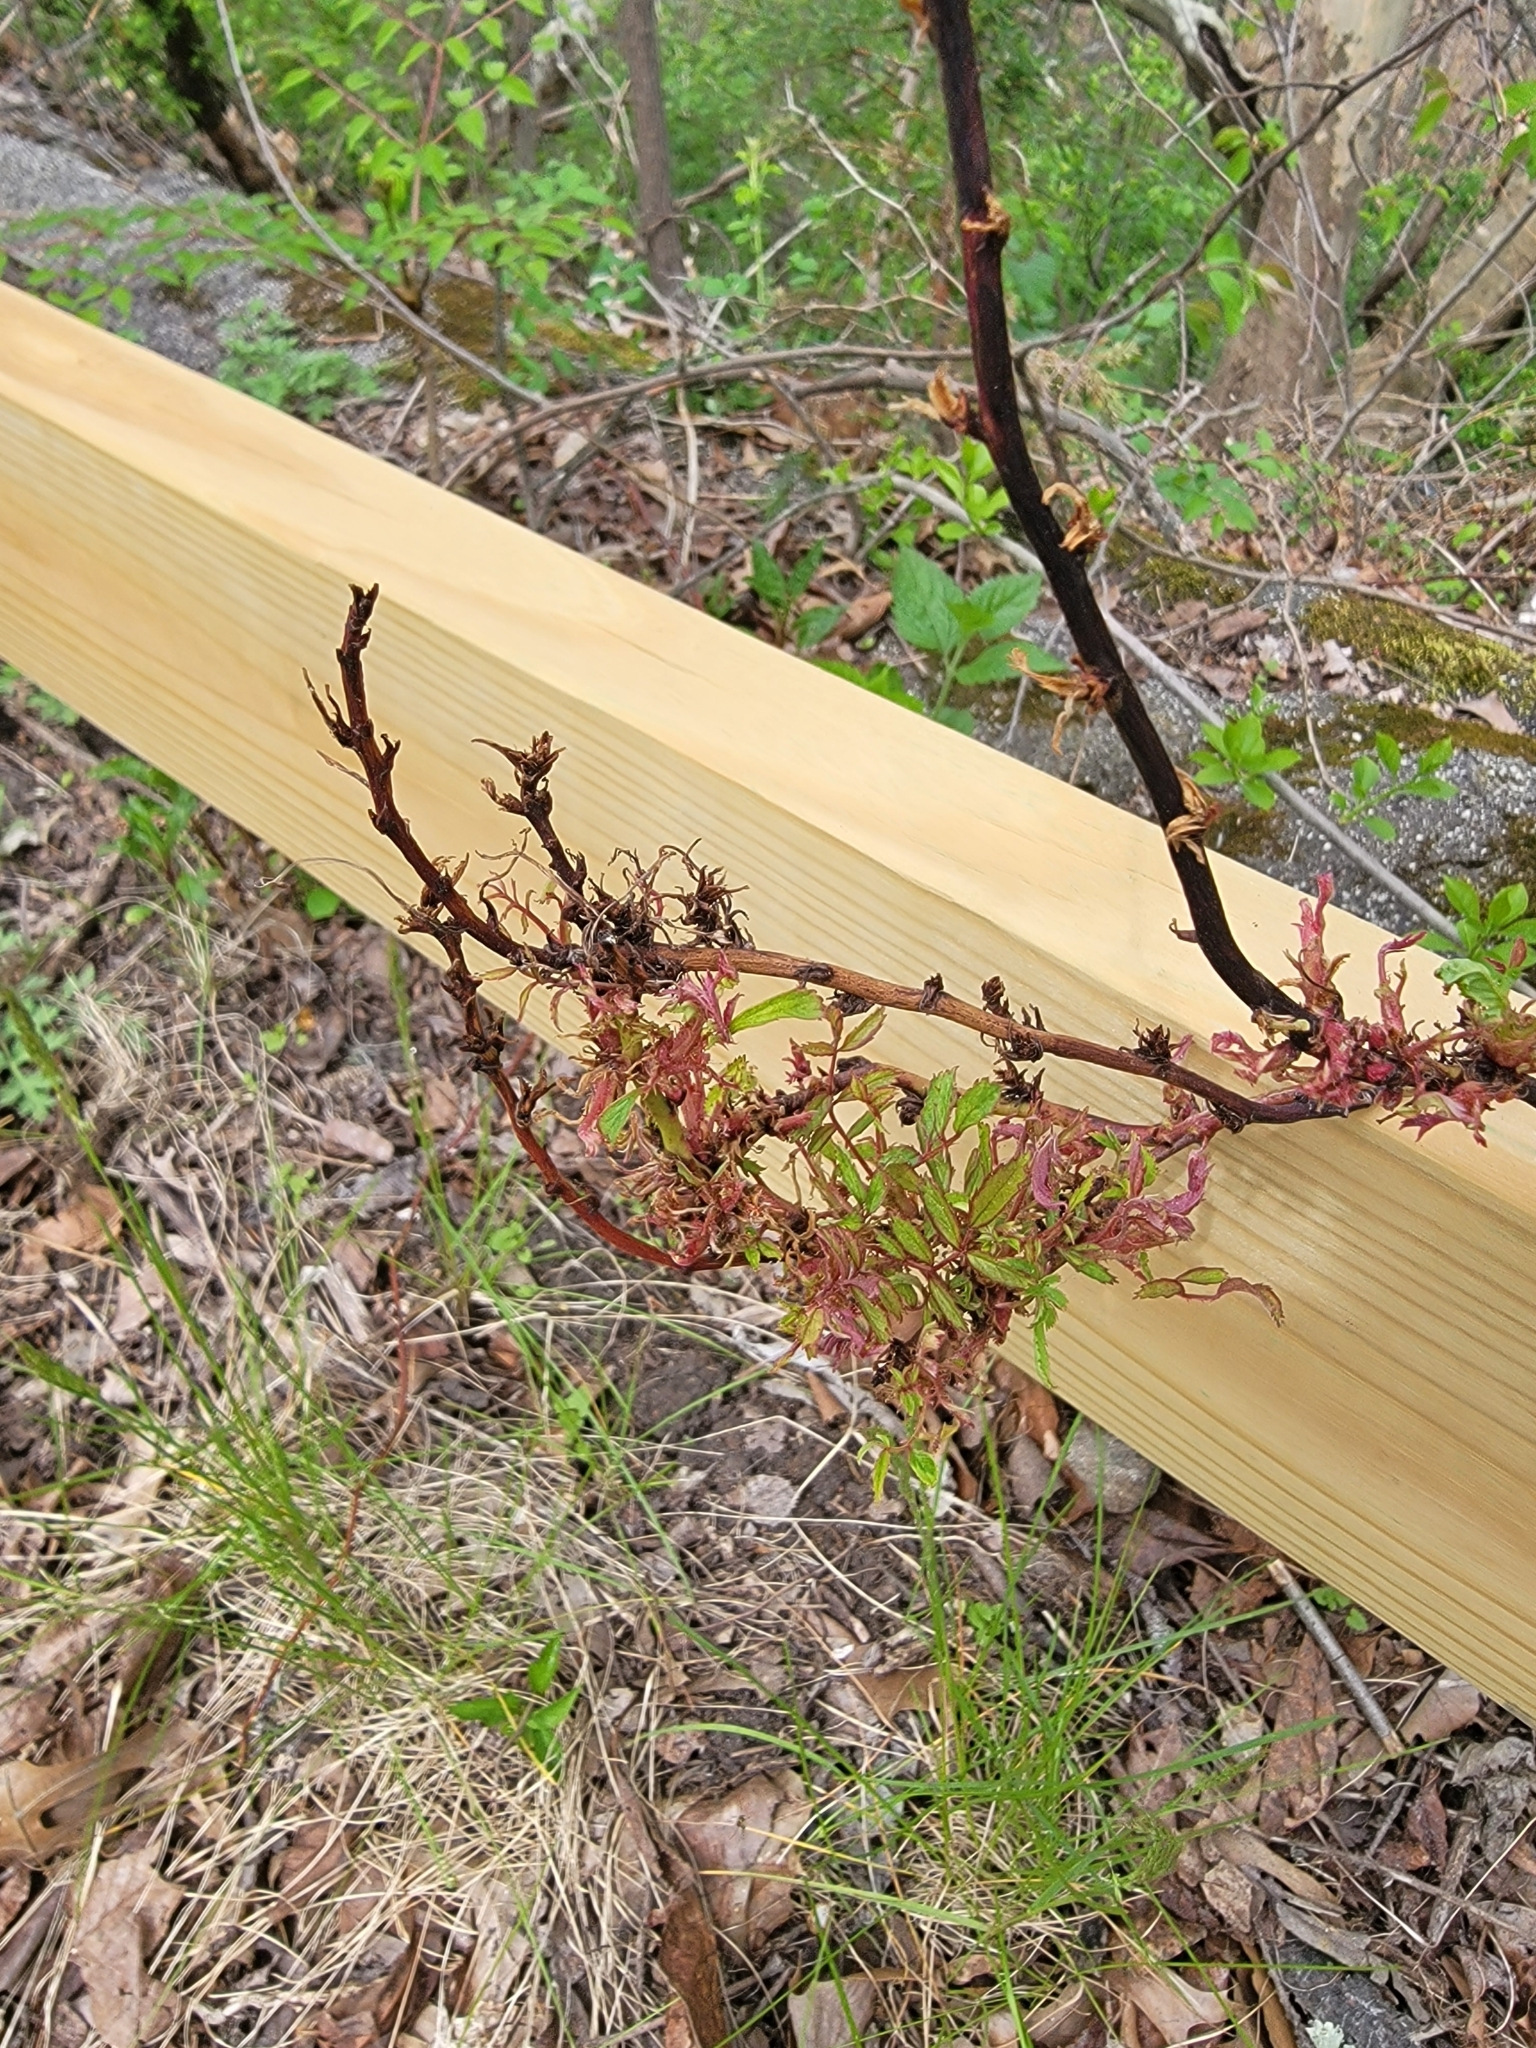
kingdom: Viruses
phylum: Negarnaviricota
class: Ellioviricetes
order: Bunyavirales
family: Fimoviridae
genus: Emaravirus
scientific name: Emaravirus rosae
